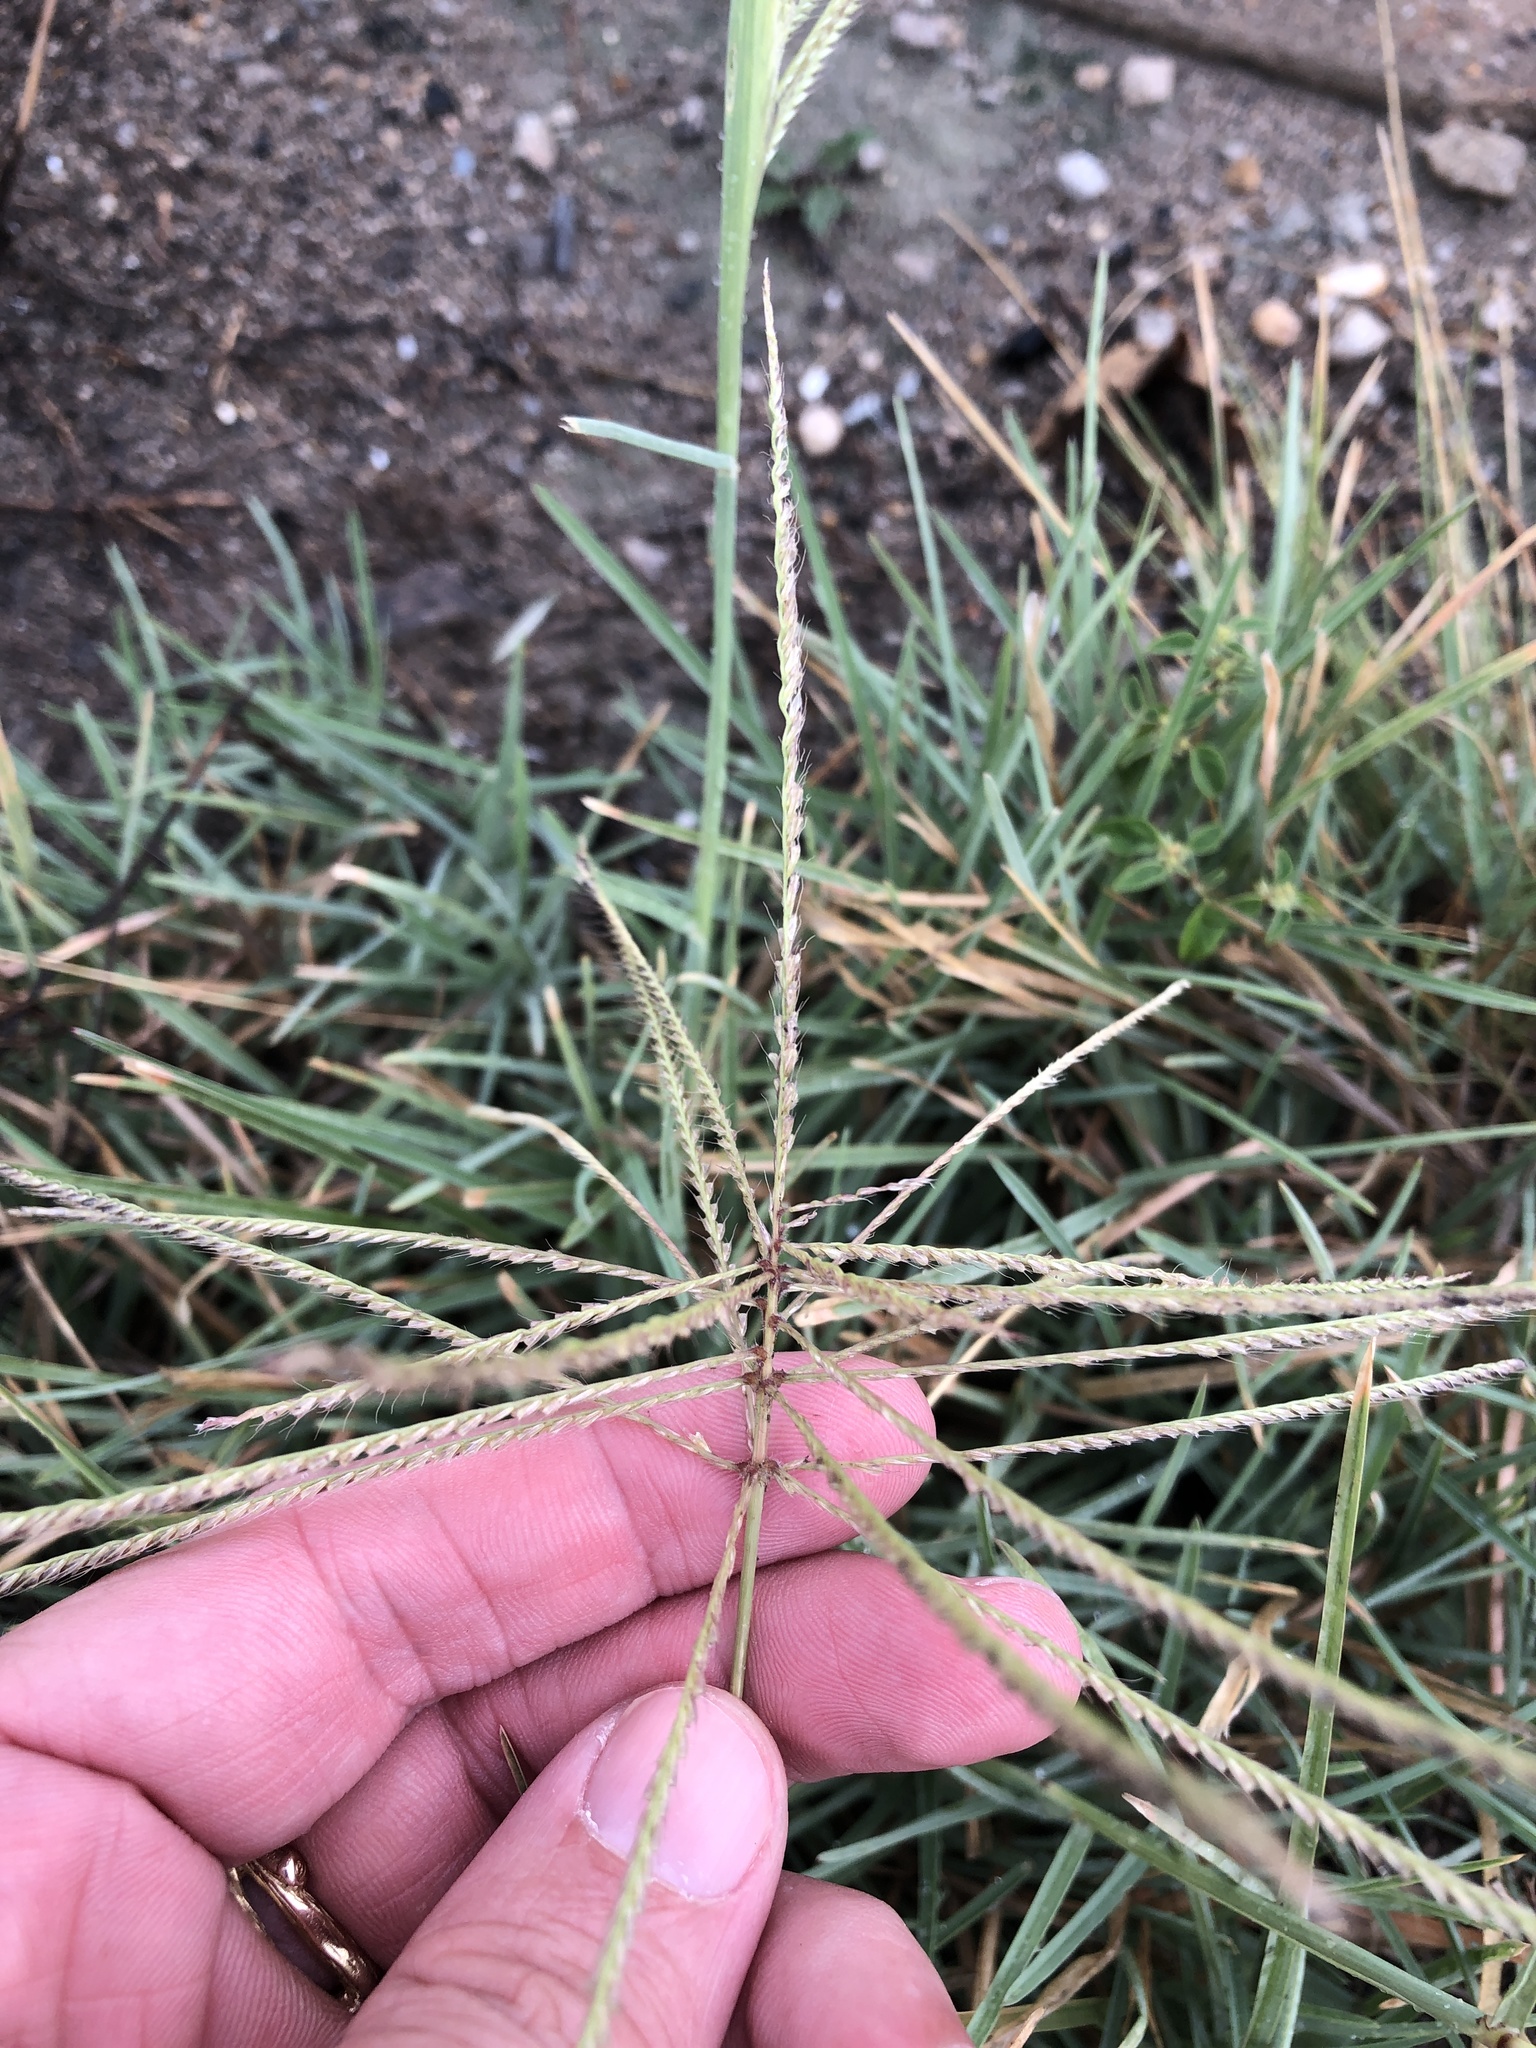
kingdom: Plantae
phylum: Tracheophyta
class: Liliopsida
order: Poales
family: Poaceae
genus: Chloris
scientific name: Chloris verticillata
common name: Tumble windmill grass
